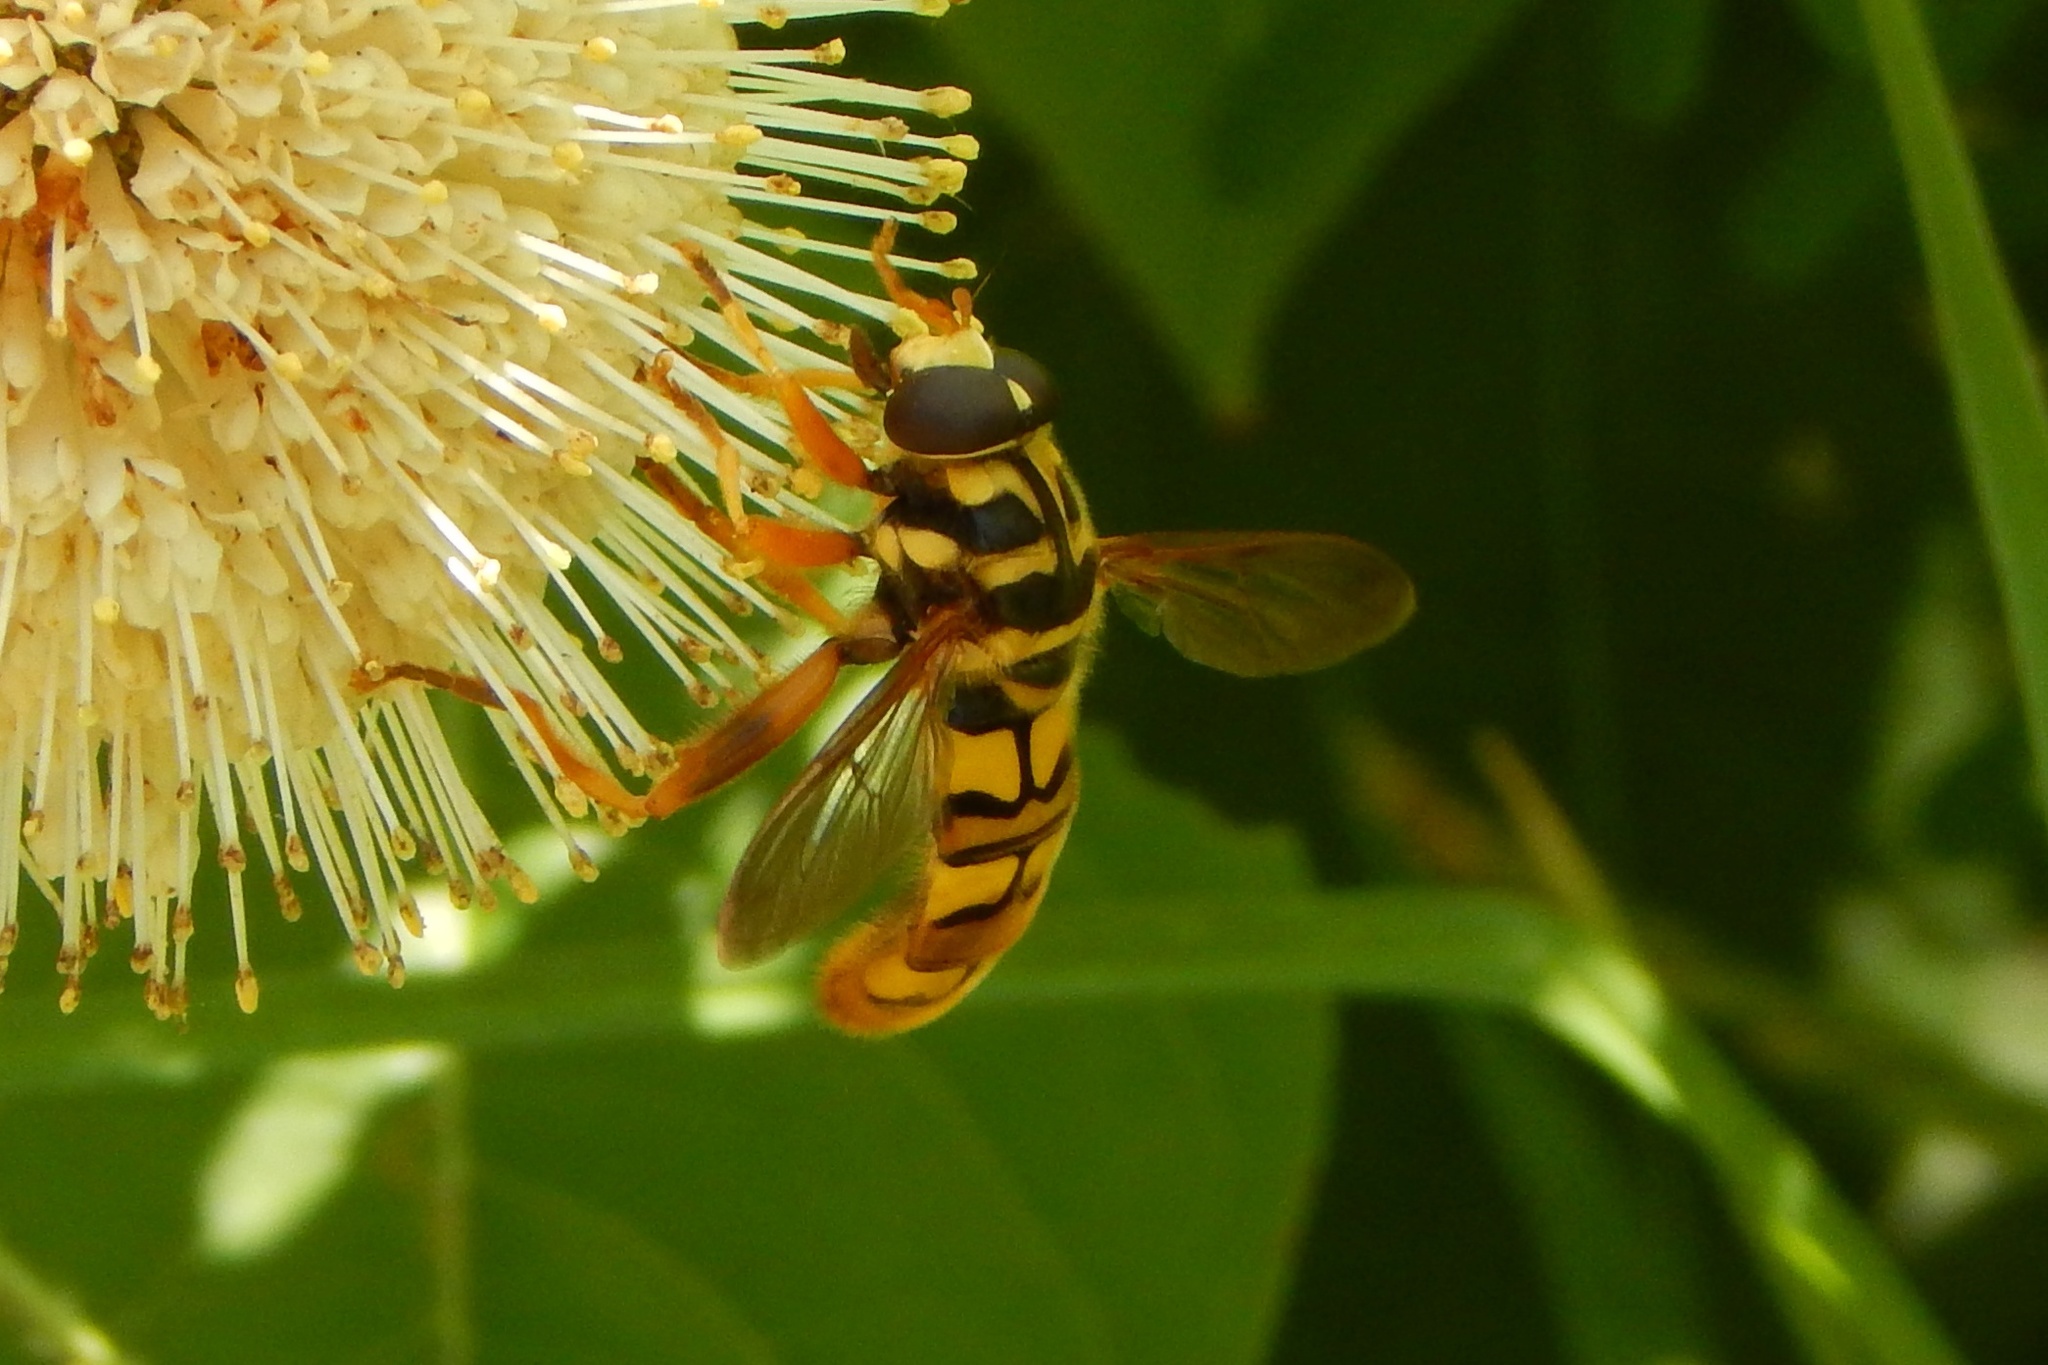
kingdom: Animalia
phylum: Arthropoda
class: Insecta
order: Diptera
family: Syrphidae
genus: Milesia
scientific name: Milesia virginiensis
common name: Virginia giant
